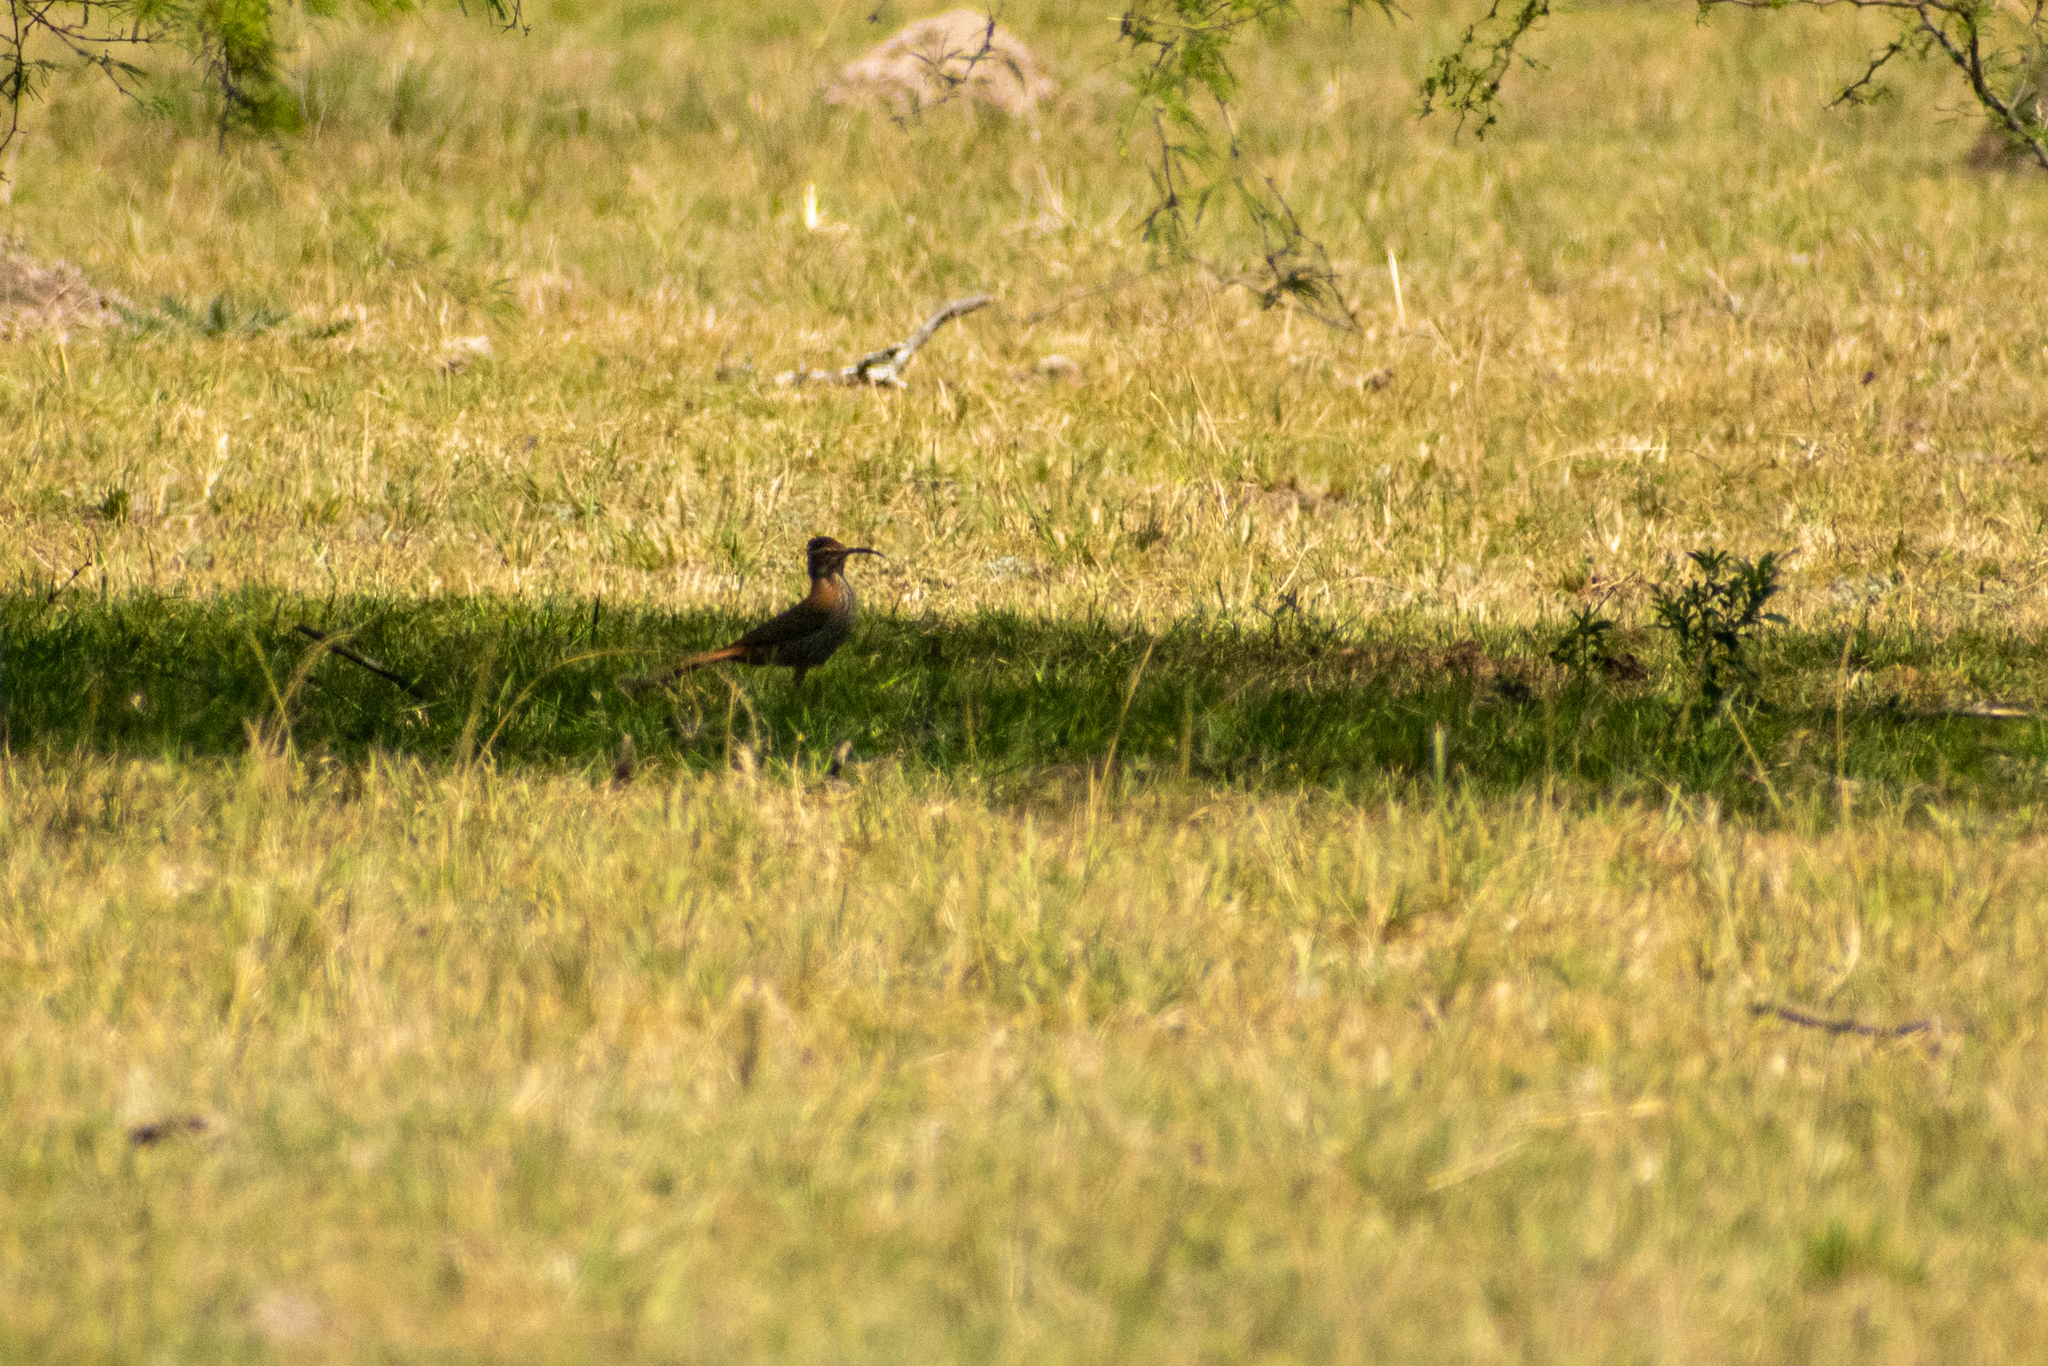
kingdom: Animalia
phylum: Chordata
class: Aves
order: Passeriformes
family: Furnariidae
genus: Drymornis
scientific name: Drymornis bridgesii
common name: Scimitar-billed woodcreeper
